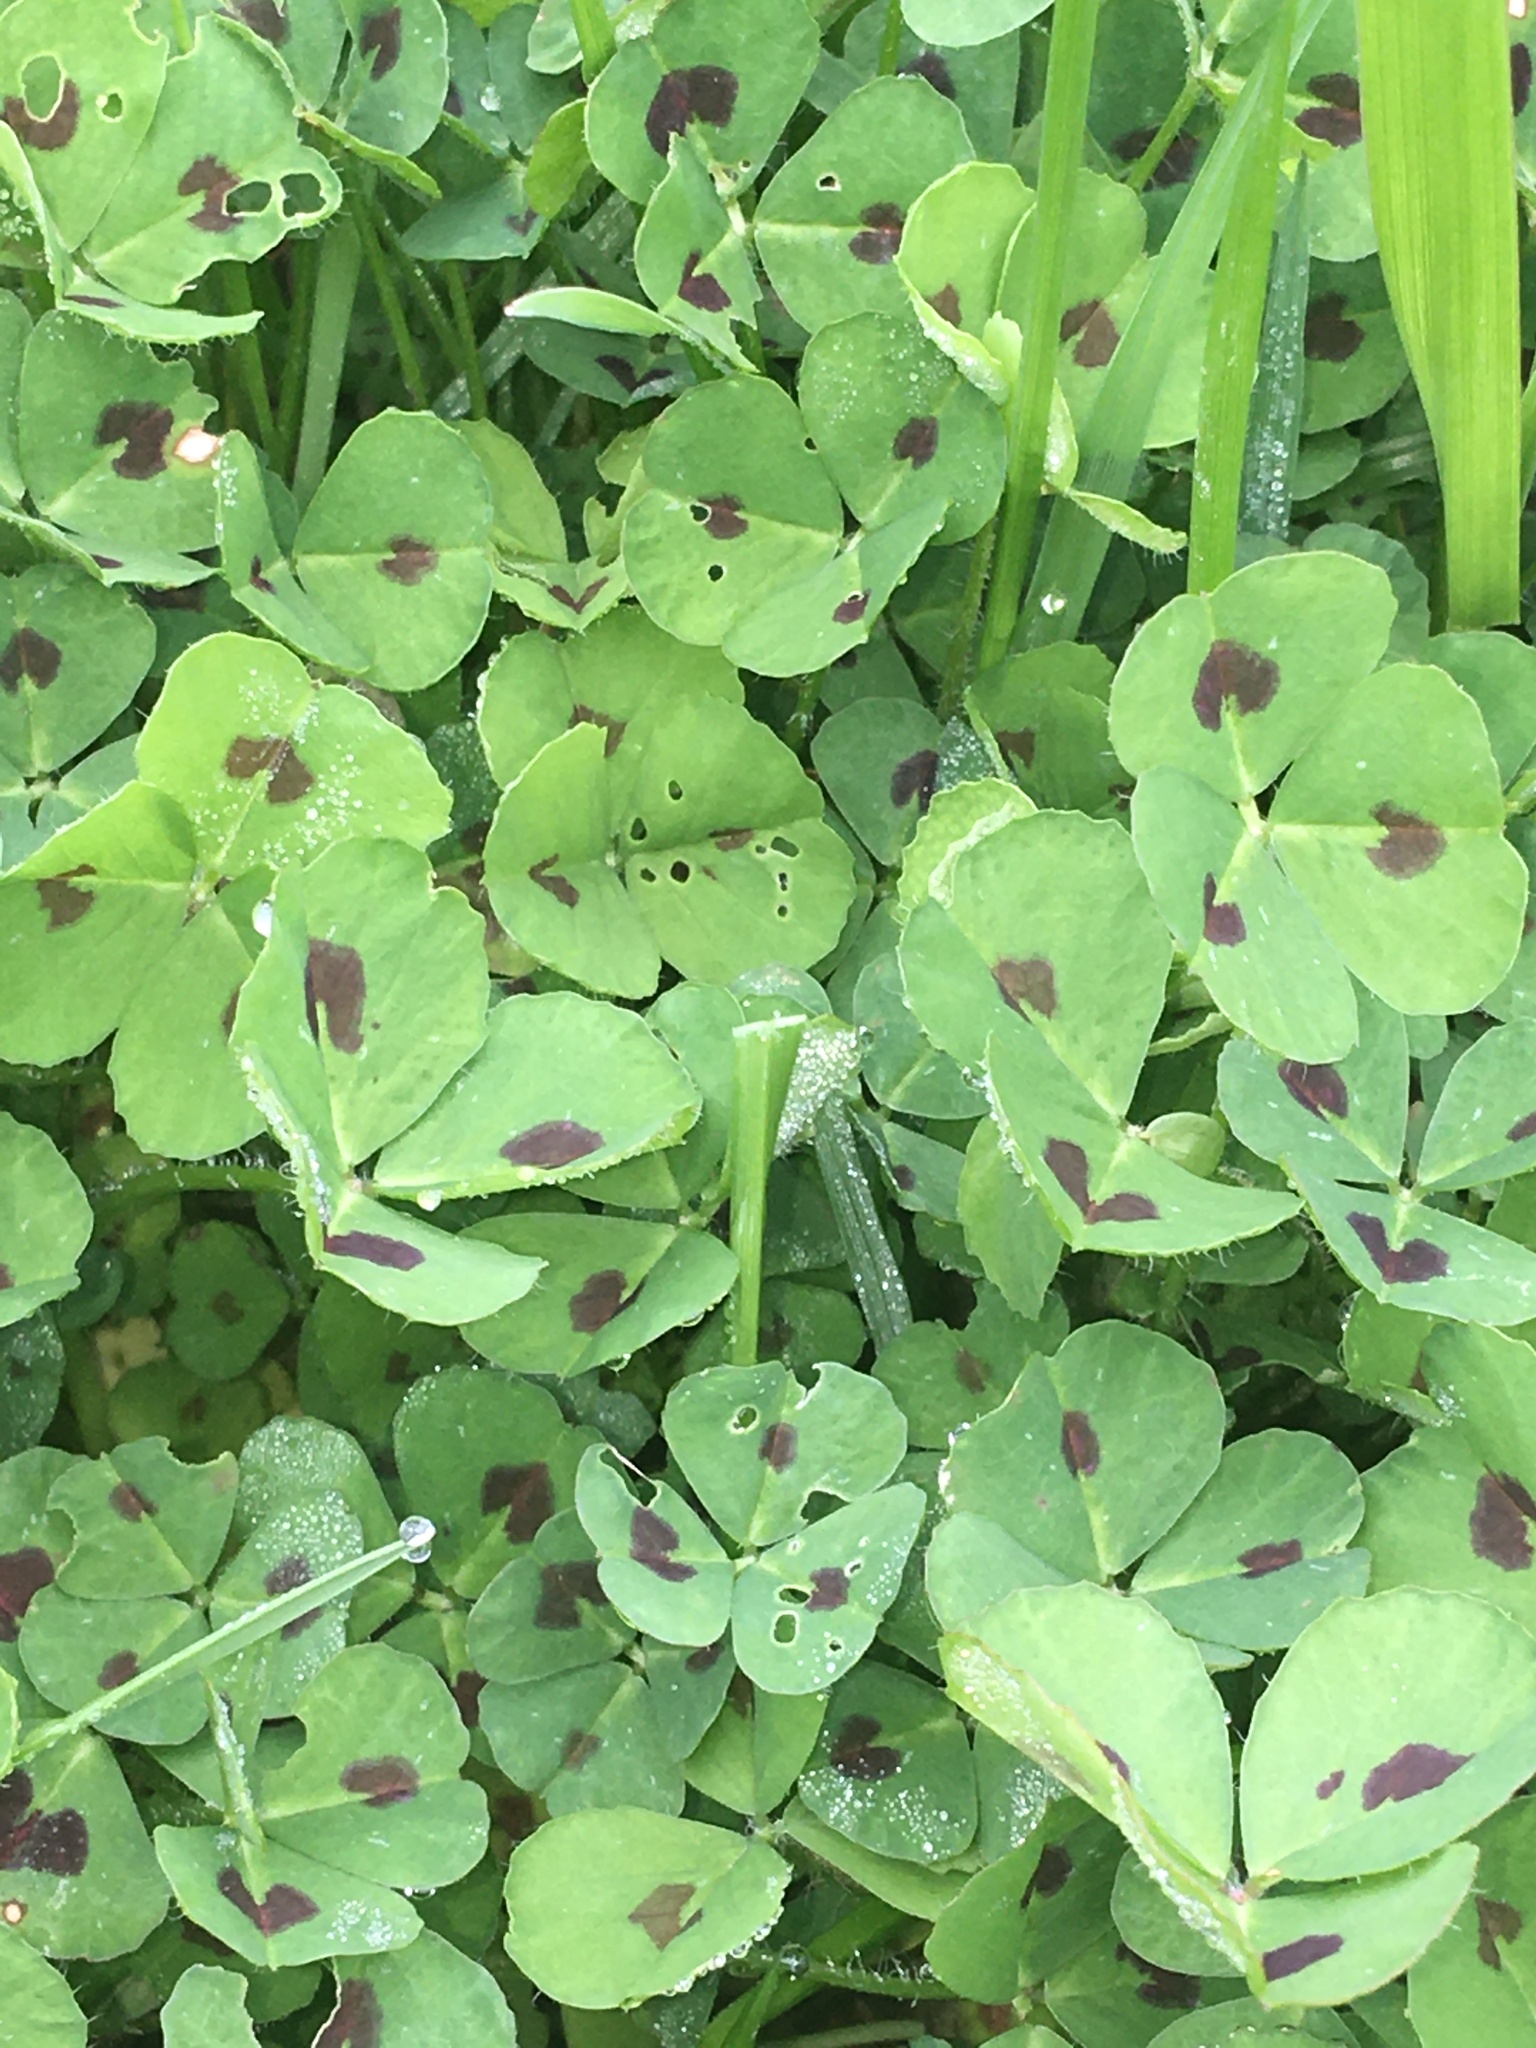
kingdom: Plantae
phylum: Tracheophyta
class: Magnoliopsida
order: Fabales
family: Fabaceae
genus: Medicago
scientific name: Medicago arabica
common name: Spotted medick
